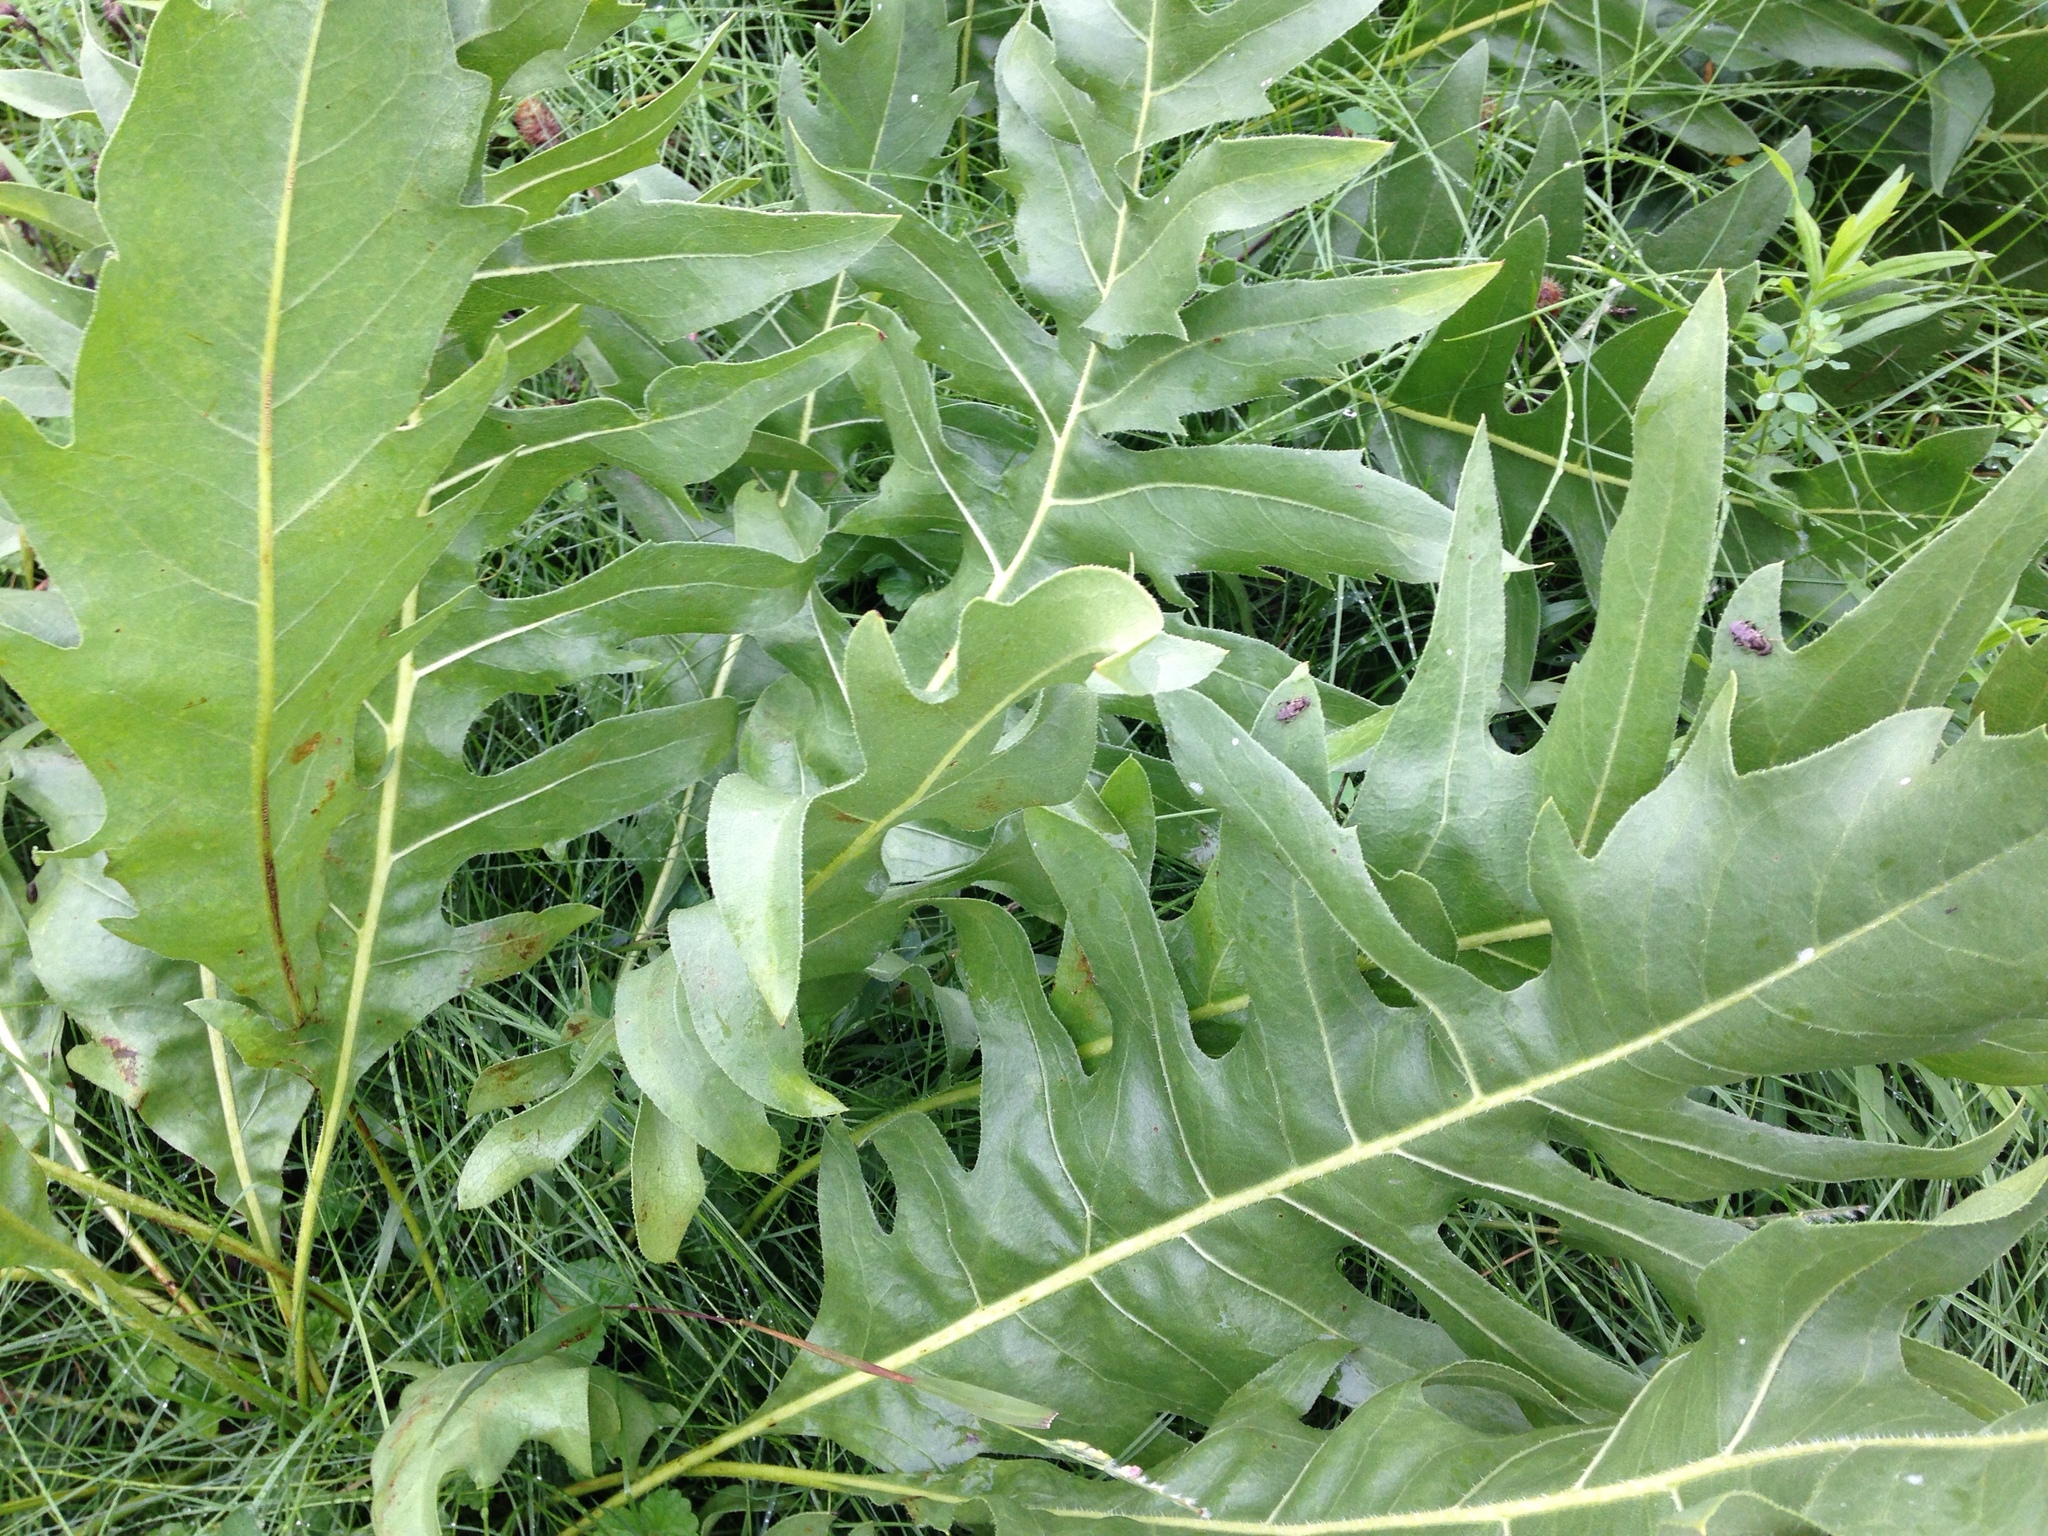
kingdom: Plantae
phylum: Tracheophyta
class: Magnoliopsida
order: Asterales
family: Asteraceae
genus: Silphium
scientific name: Silphium laciniatum
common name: Polarplant
